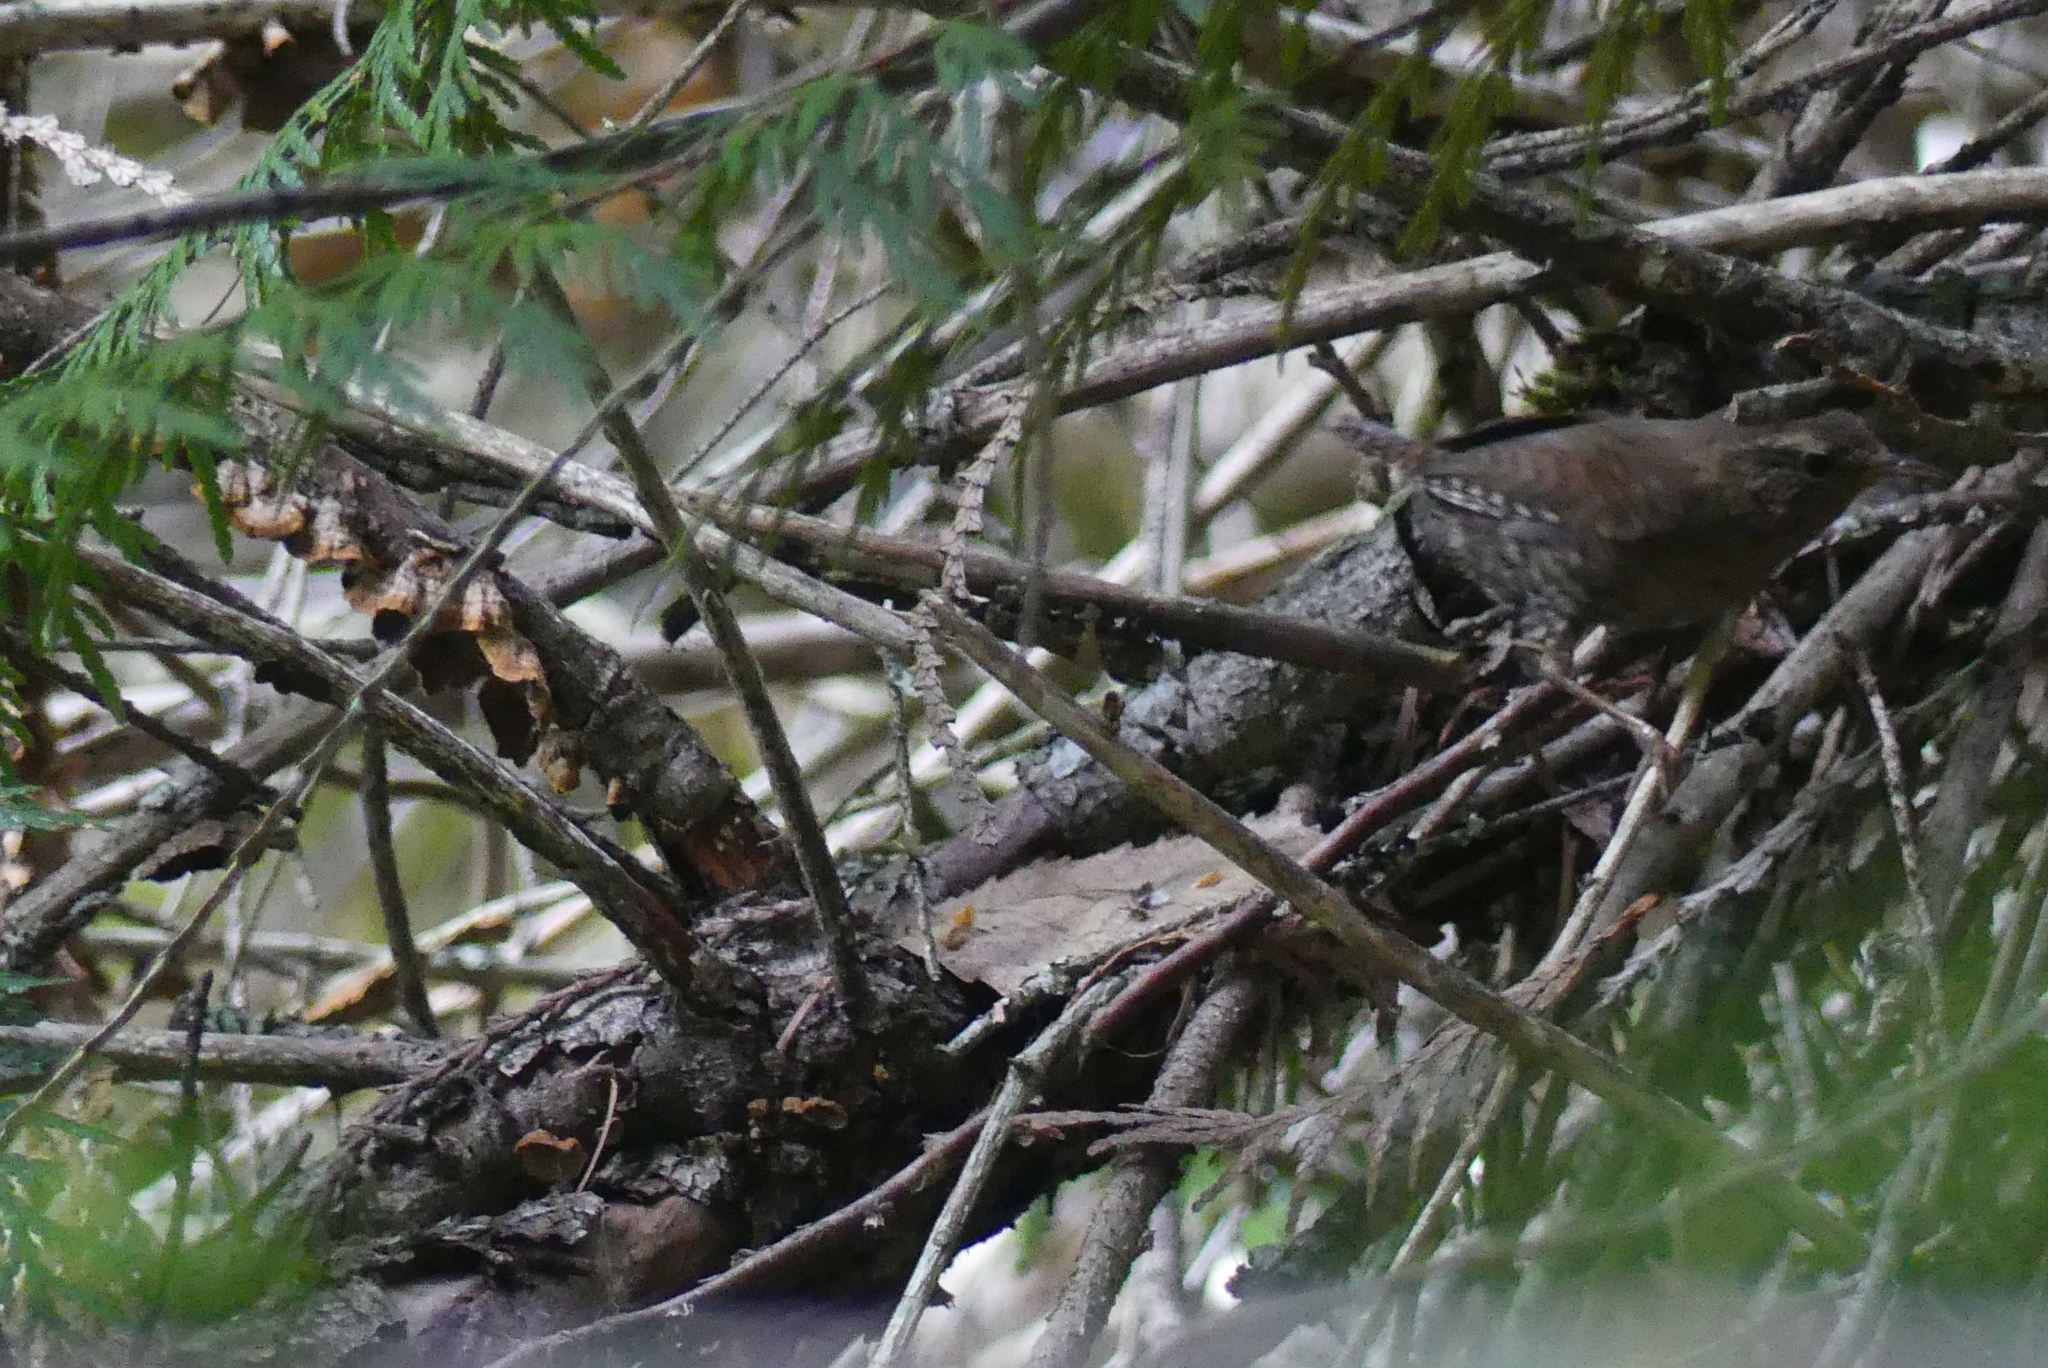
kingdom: Animalia
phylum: Chordata
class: Aves
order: Passeriformes
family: Troglodytidae
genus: Troglodytes
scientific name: Troglodytes pacificus
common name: Pacific wren
